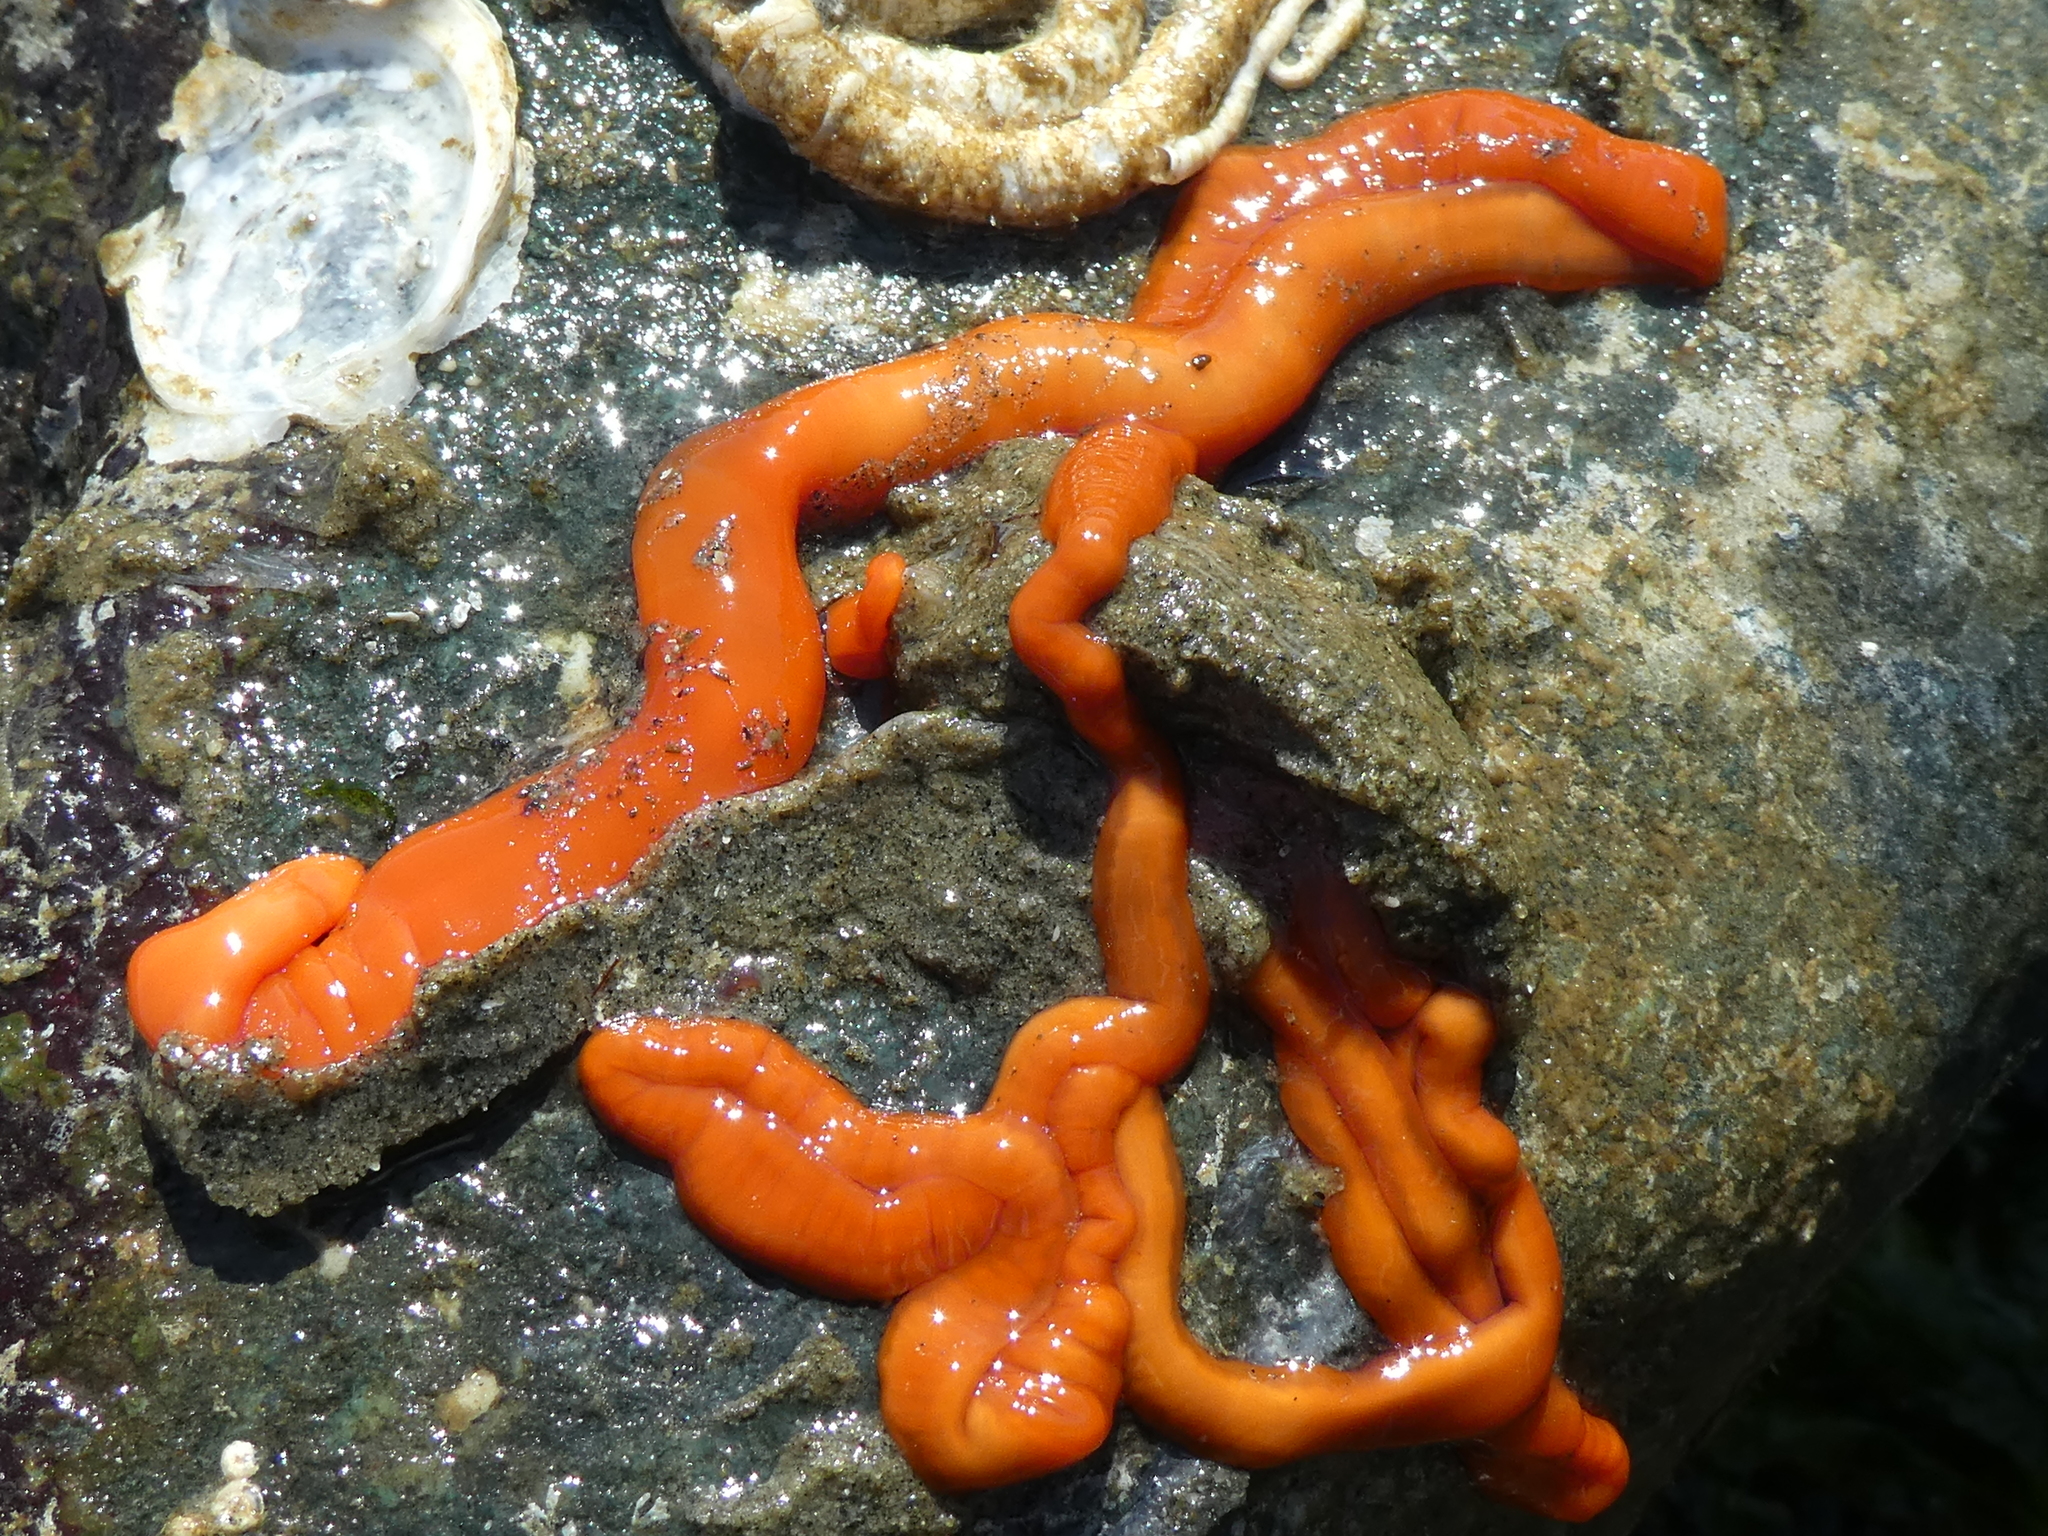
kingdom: Animalia
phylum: Nemertea
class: Palaeonemertea
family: Tubulanidae
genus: Tubulanus
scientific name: Tubulanus polymorphus
